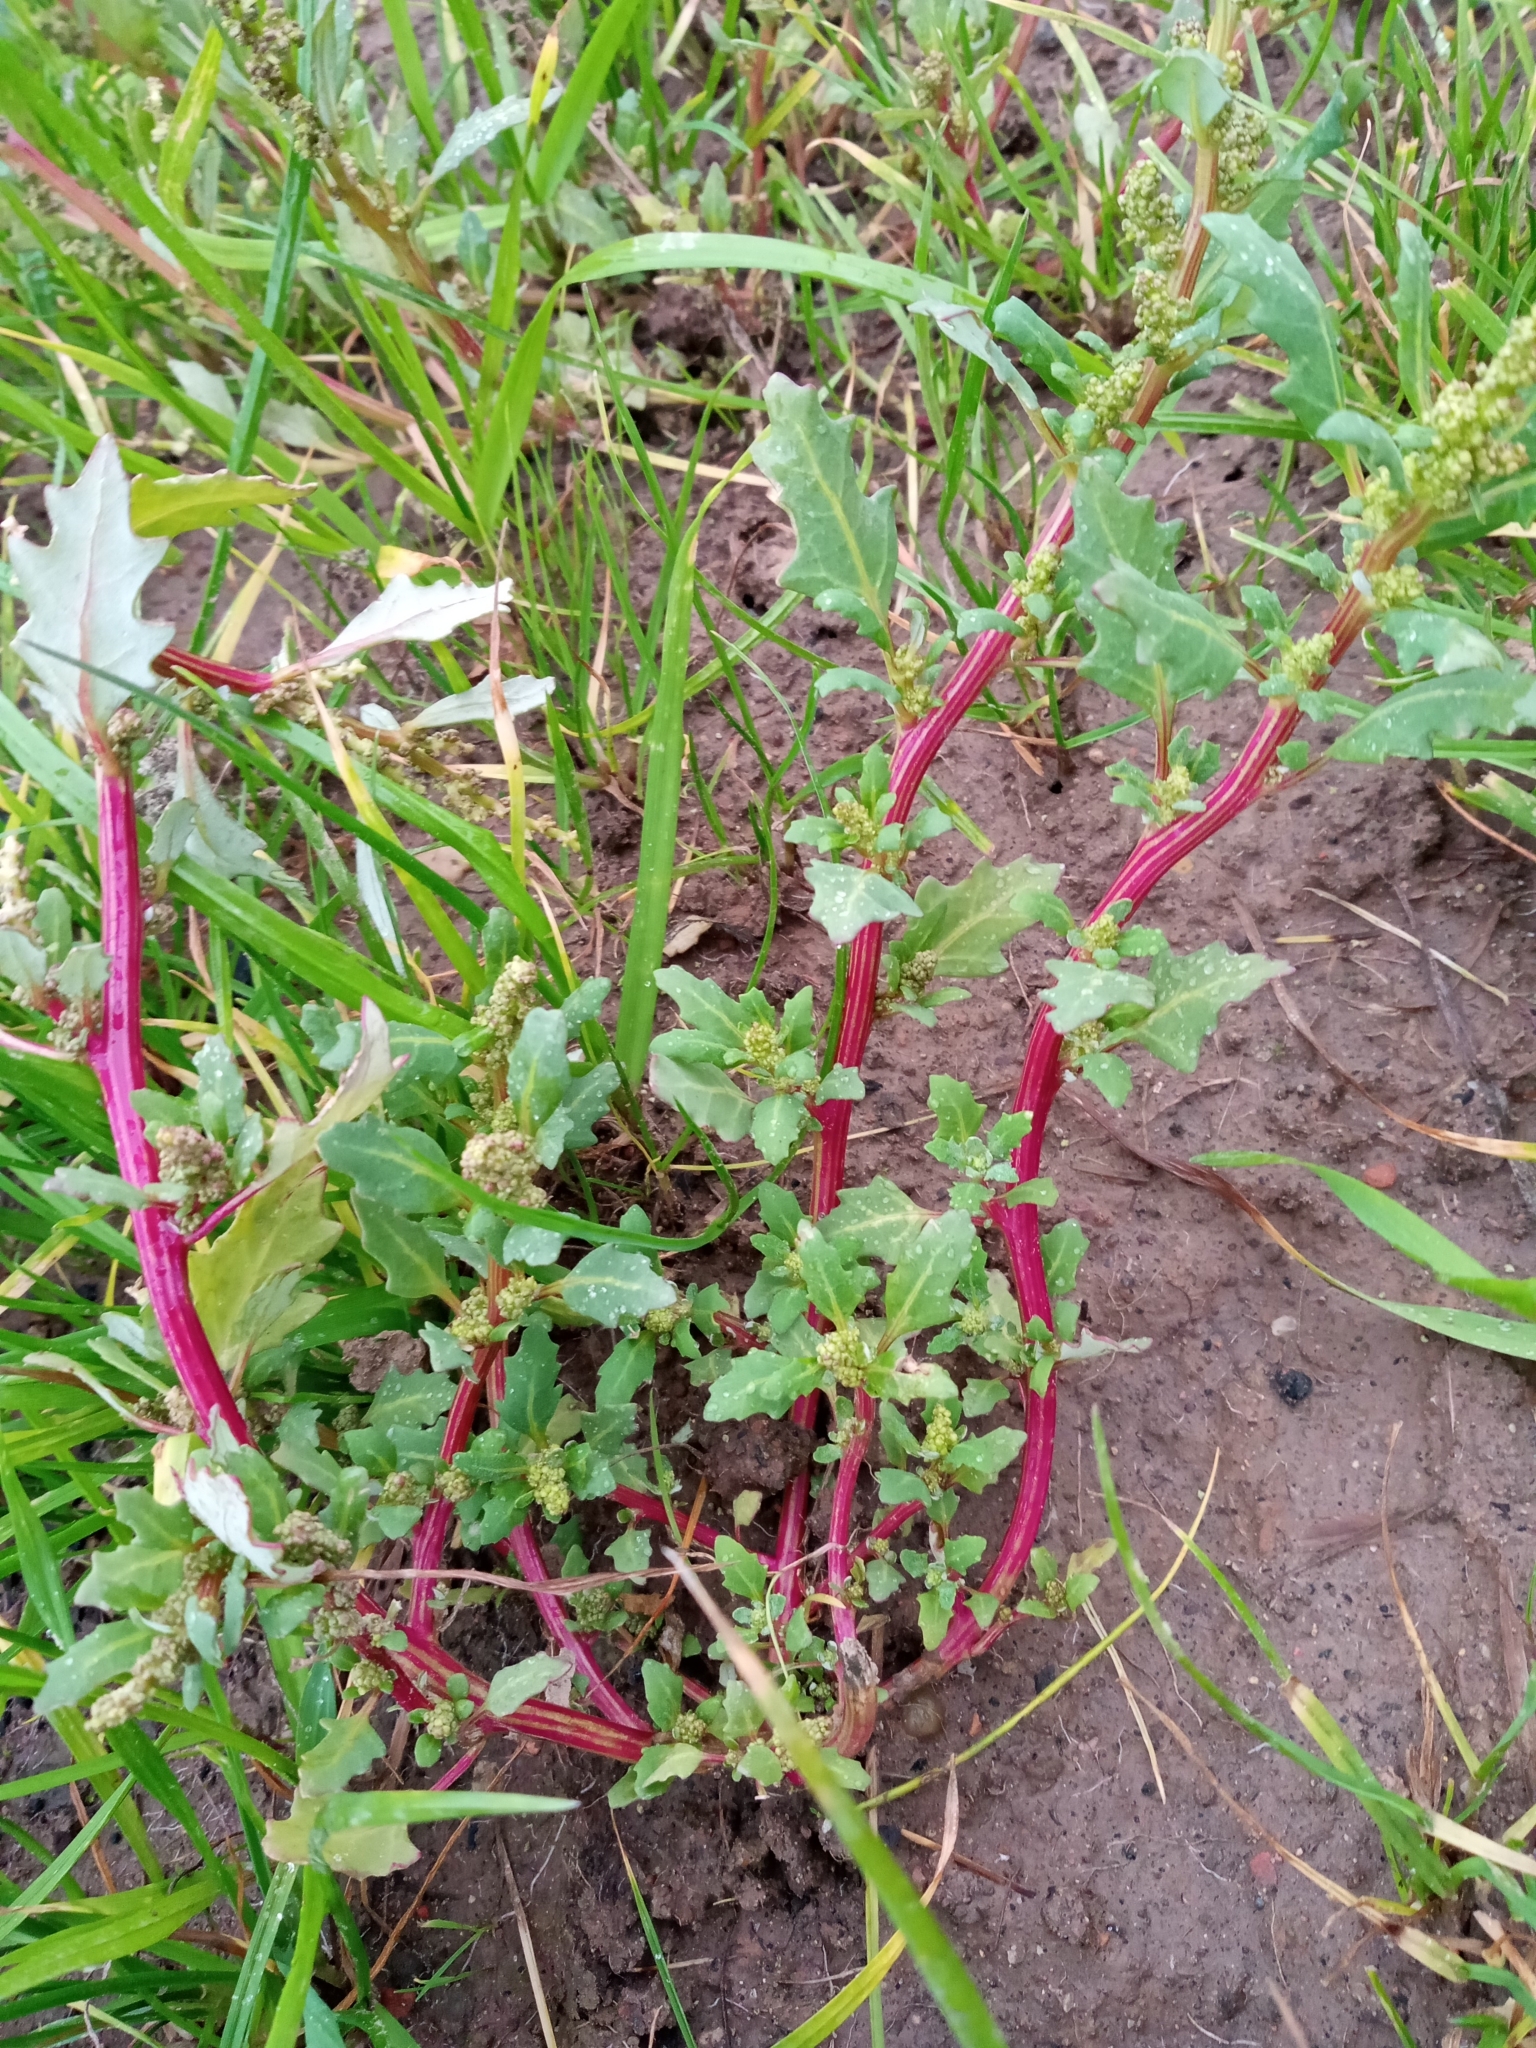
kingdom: Plantae
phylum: Tracheophyta
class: Magnoliopsida
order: Caryophyllales
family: Amaranthaceae
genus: Oxybasis
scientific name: Oxybasis glauca
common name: Glaucous goosefoot
